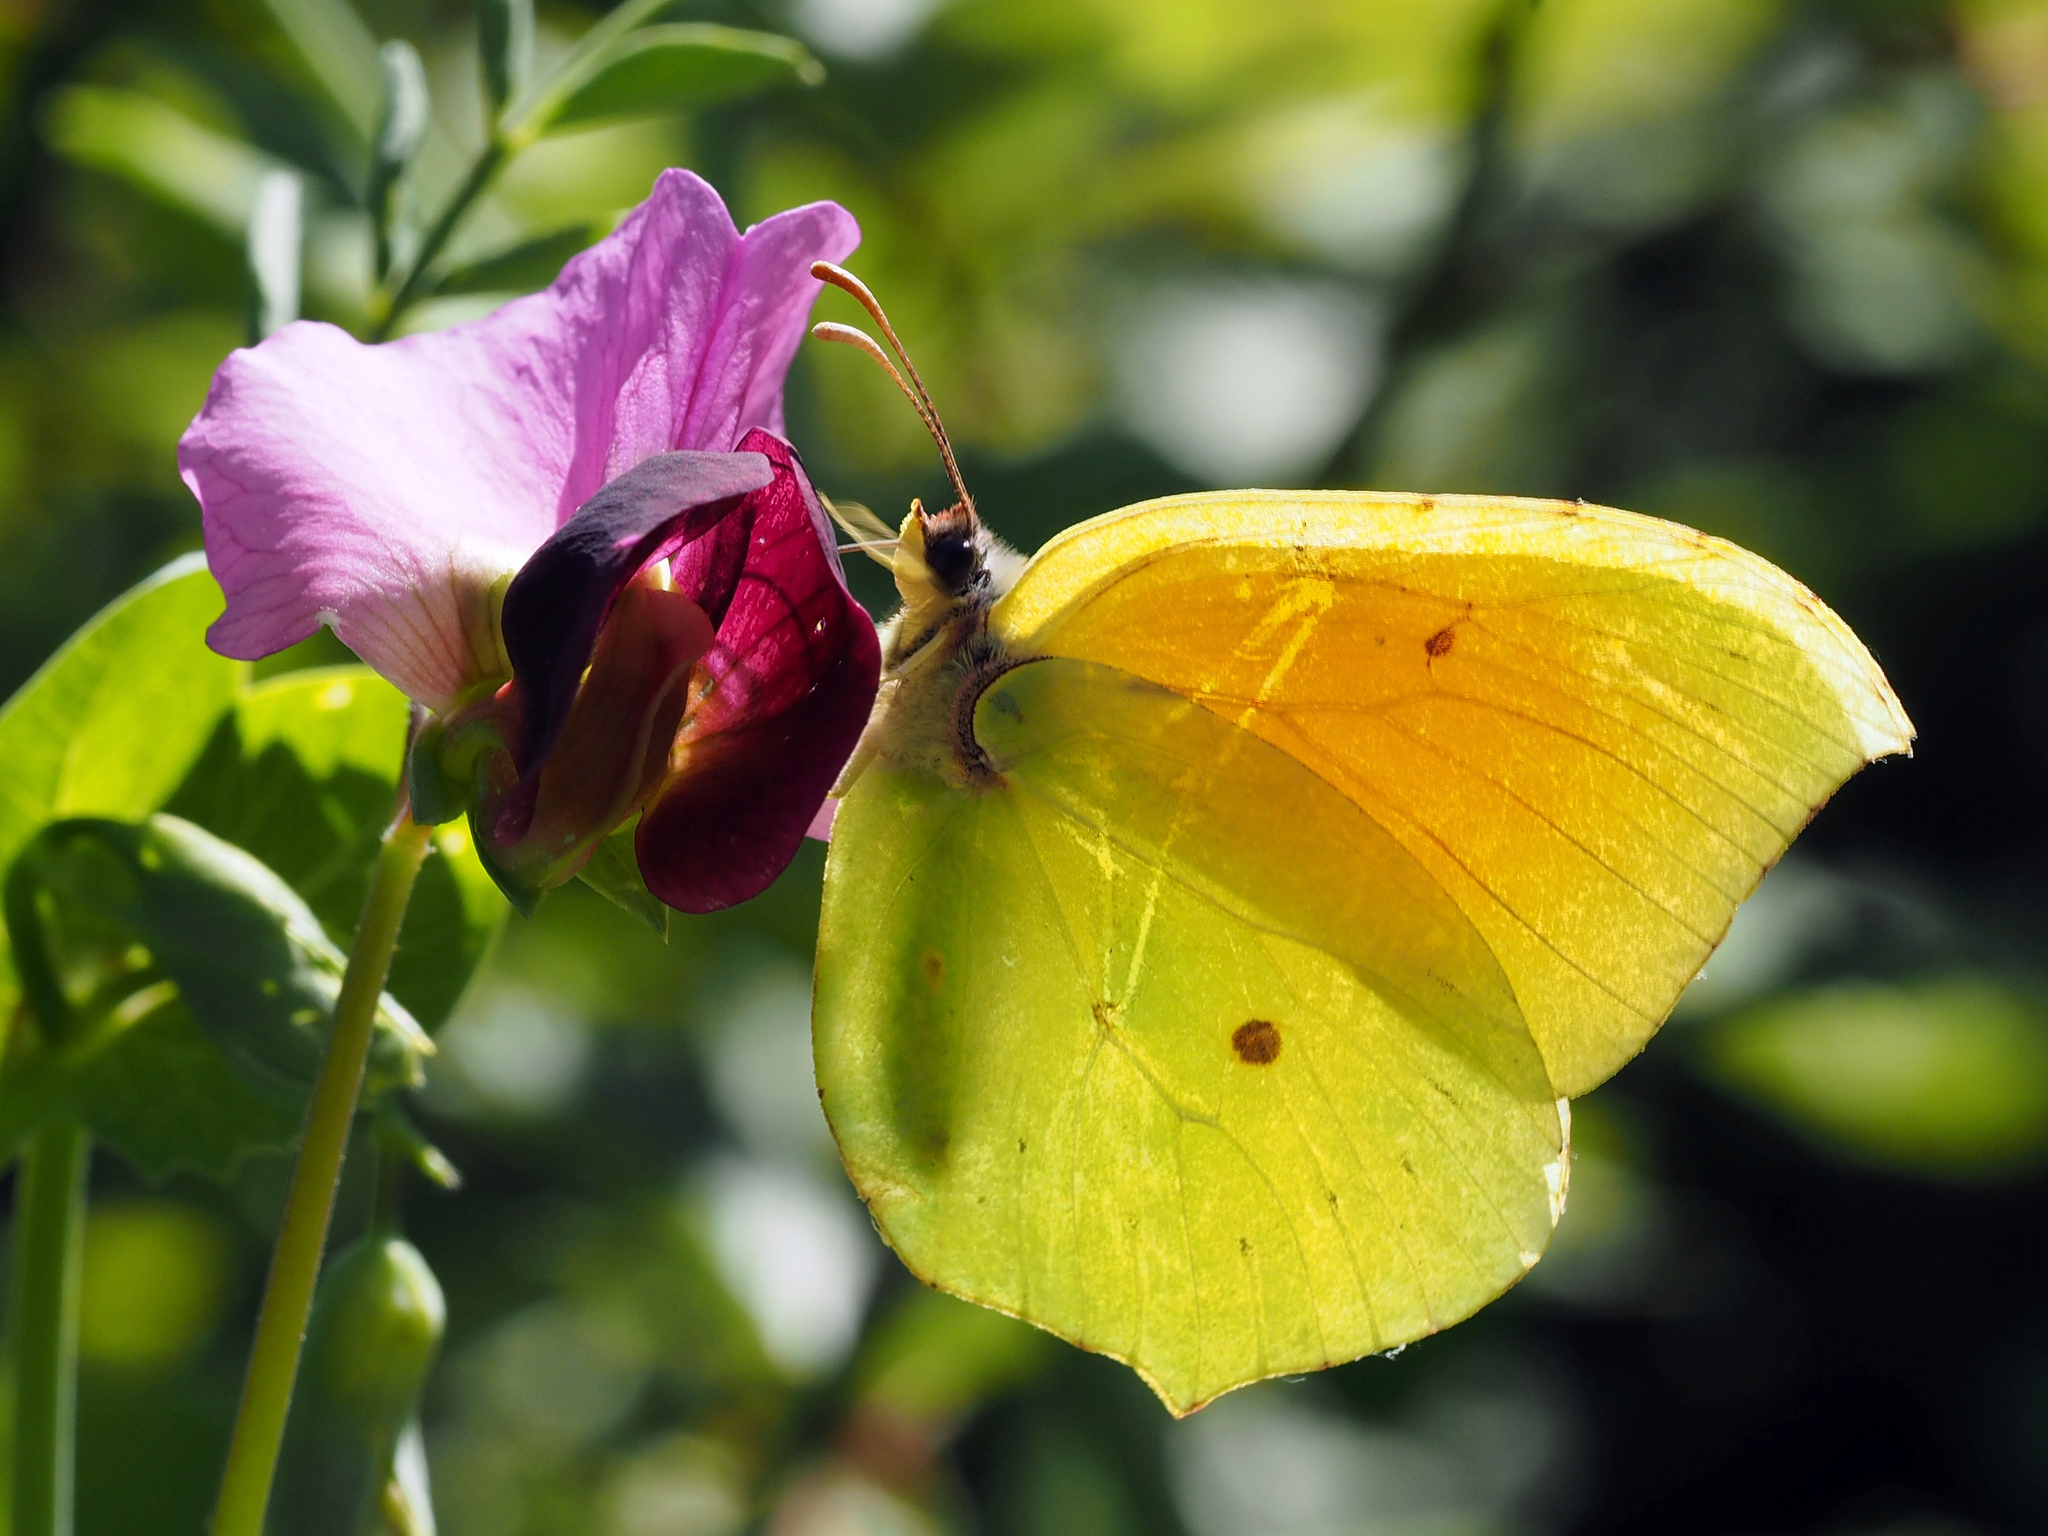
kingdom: Animalia
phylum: Arthropoda
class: Insecta
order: Lepidoptera
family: Pieridae
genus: Gonepteryx
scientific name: Gonepteryx cleopatra
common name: Cleopatra
